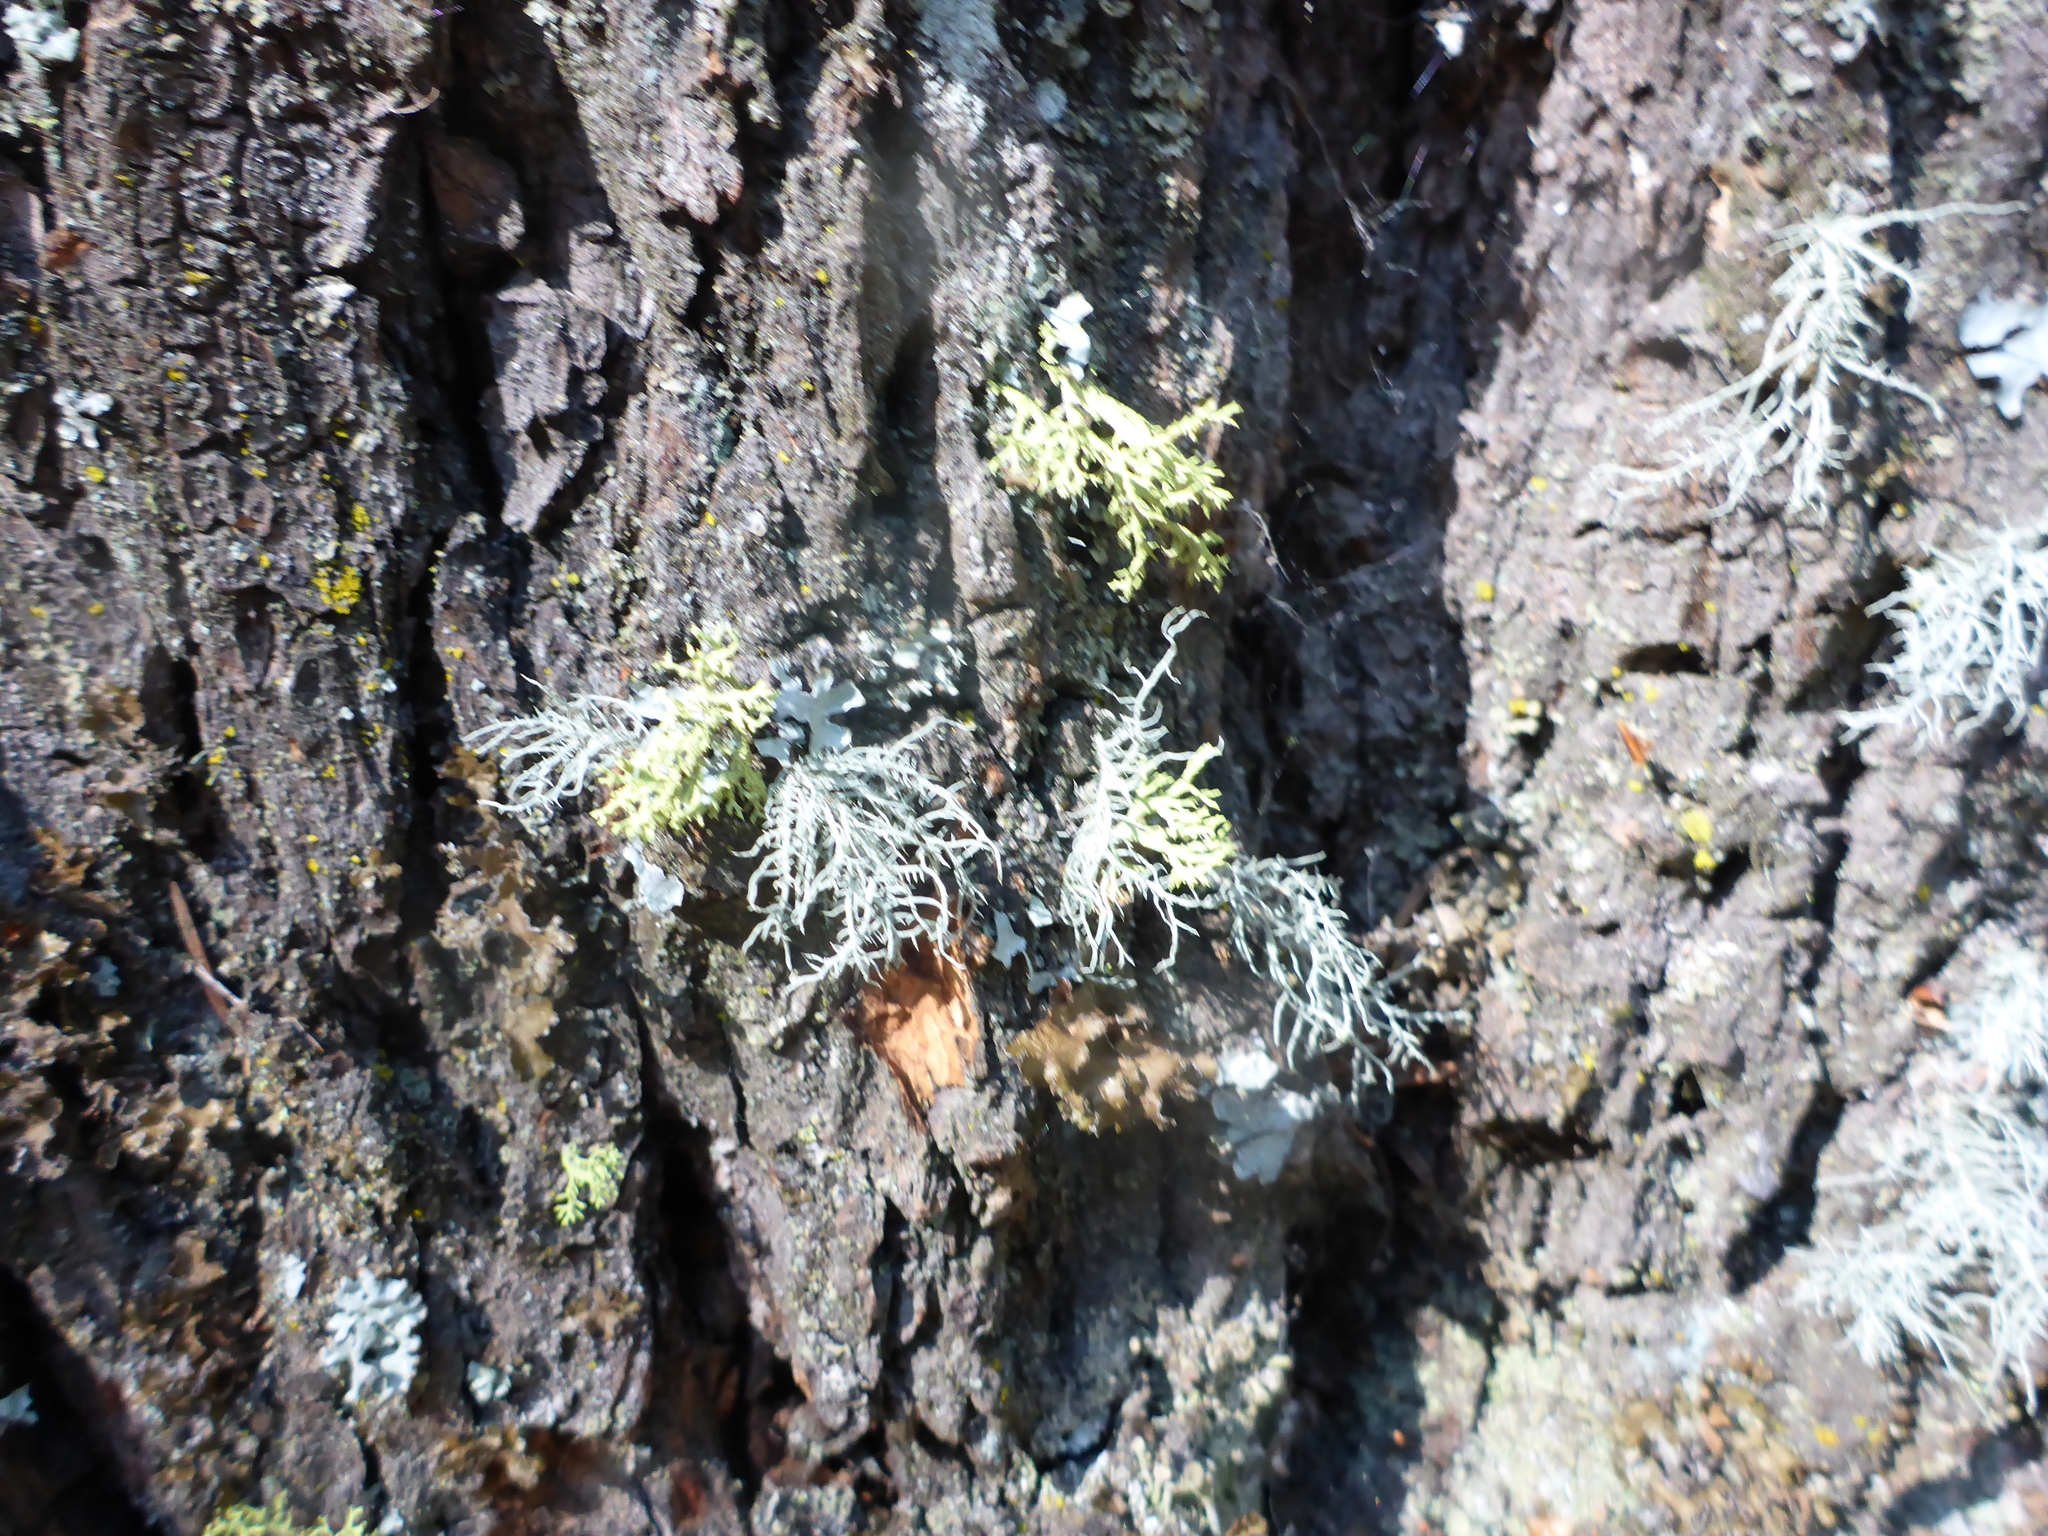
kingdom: Fungi
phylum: Ascomycota
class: Lecanoromycetes
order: Lecanorales
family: Parmeliaceae
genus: Usnea
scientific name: Usnea hirta
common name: Bristly beard lichen
